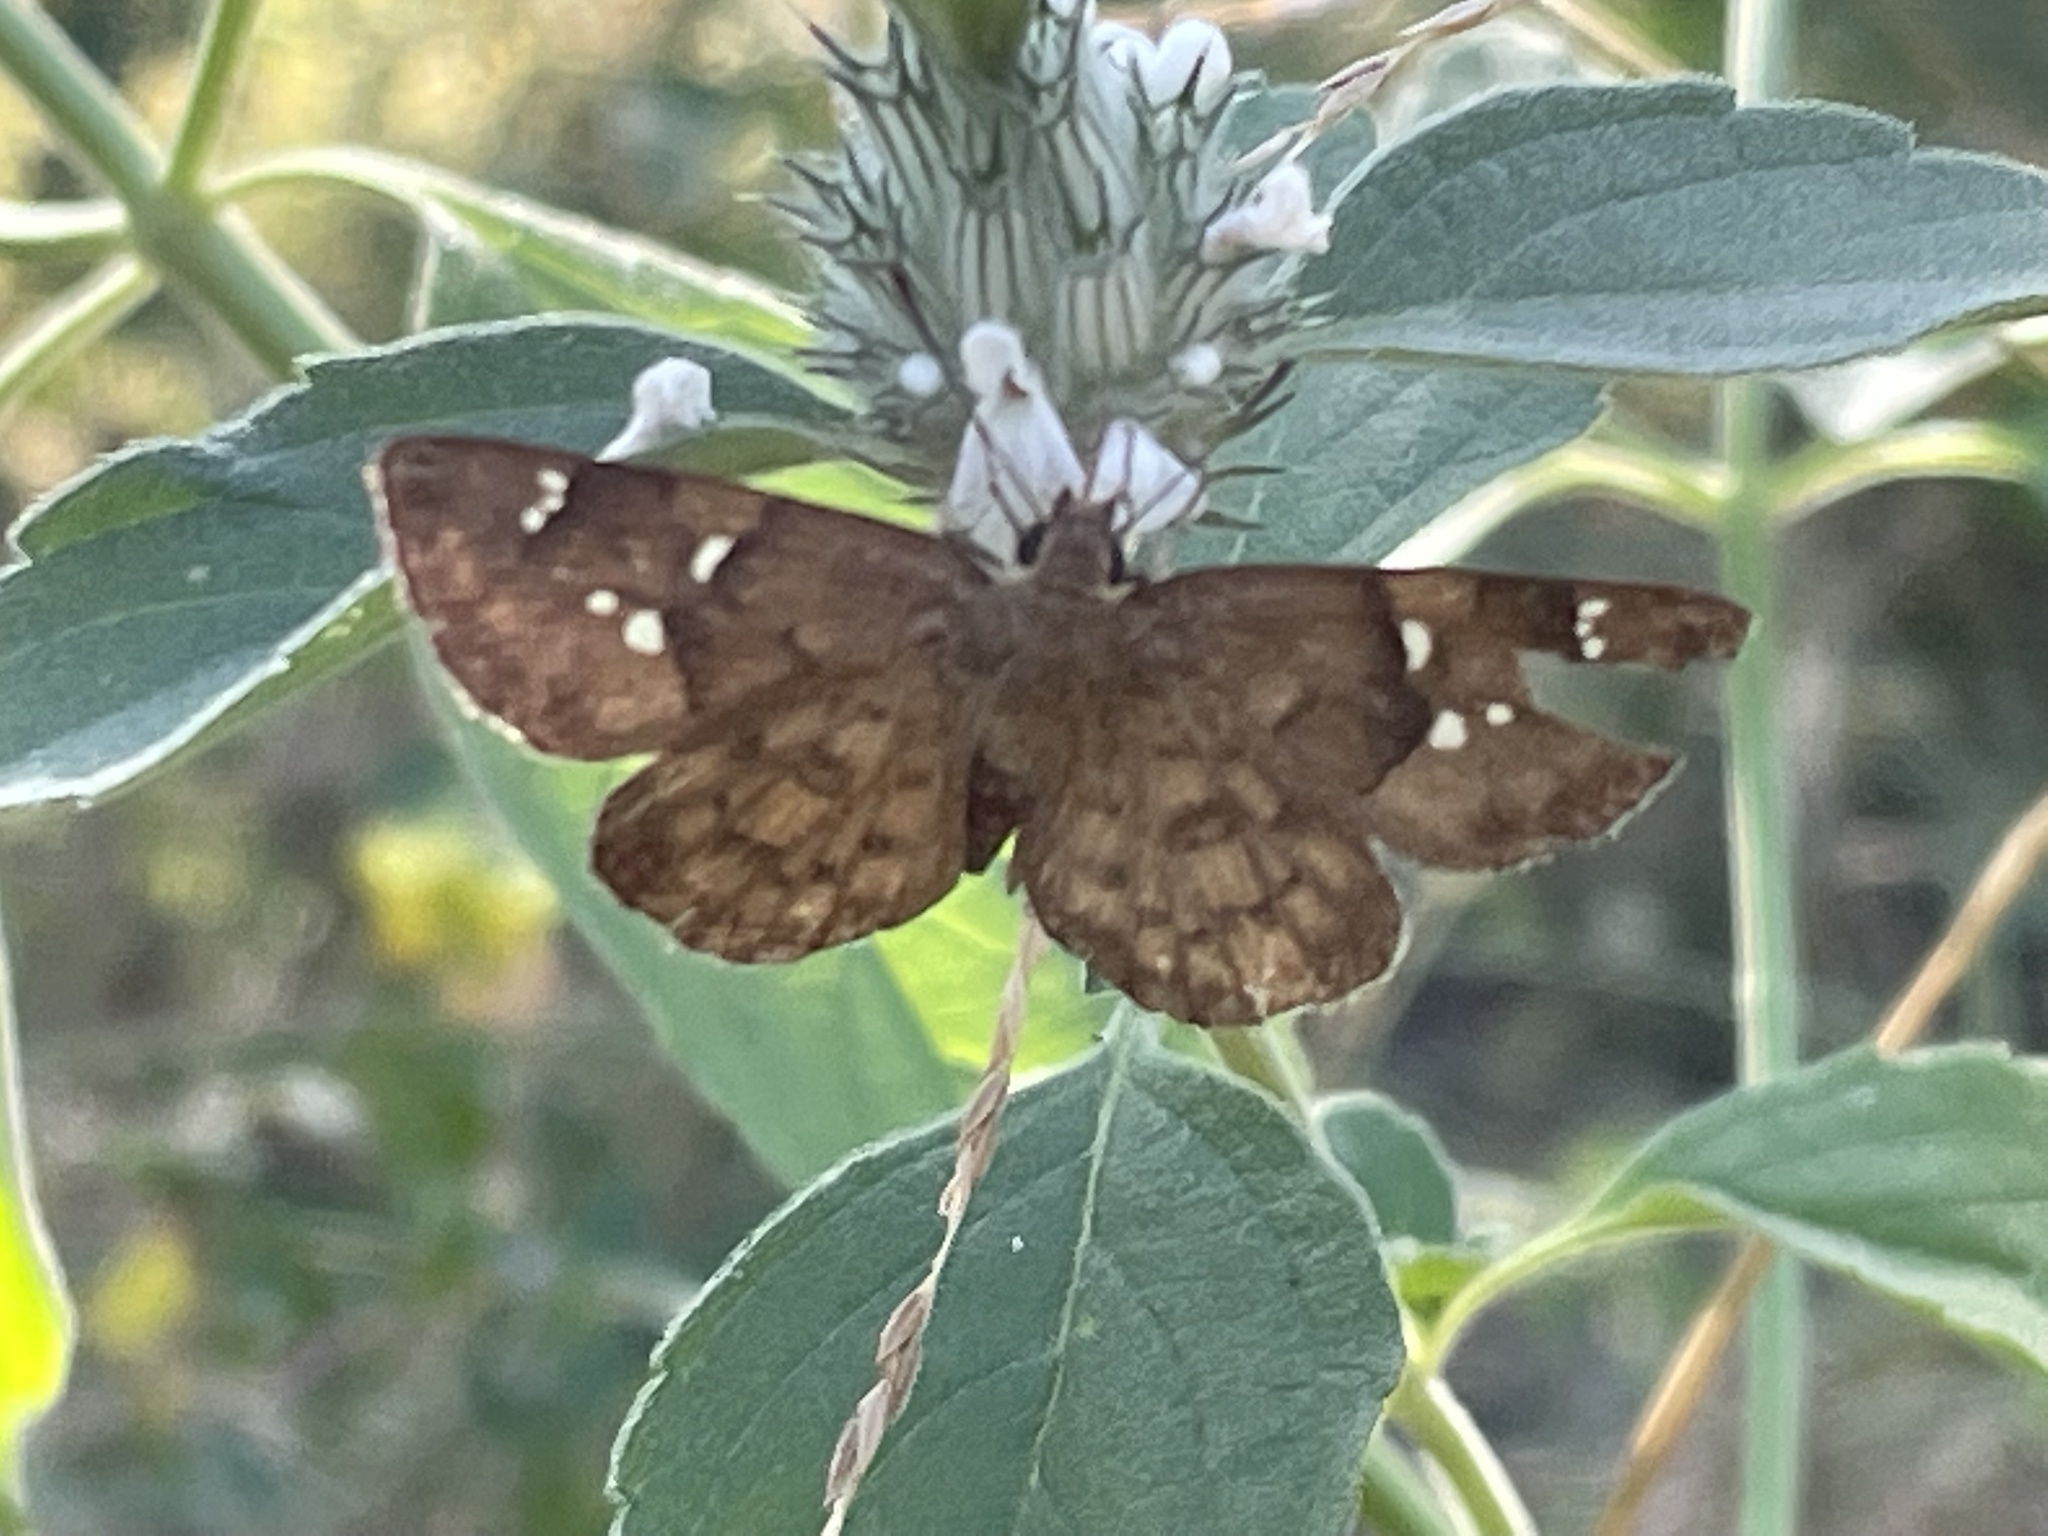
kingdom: Animalia
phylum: Arthropoda
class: Insecta
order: Lepidoptera
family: Hesperiidae
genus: Sarangesa
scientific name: Sarangesa phidyle
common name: Small elfin
